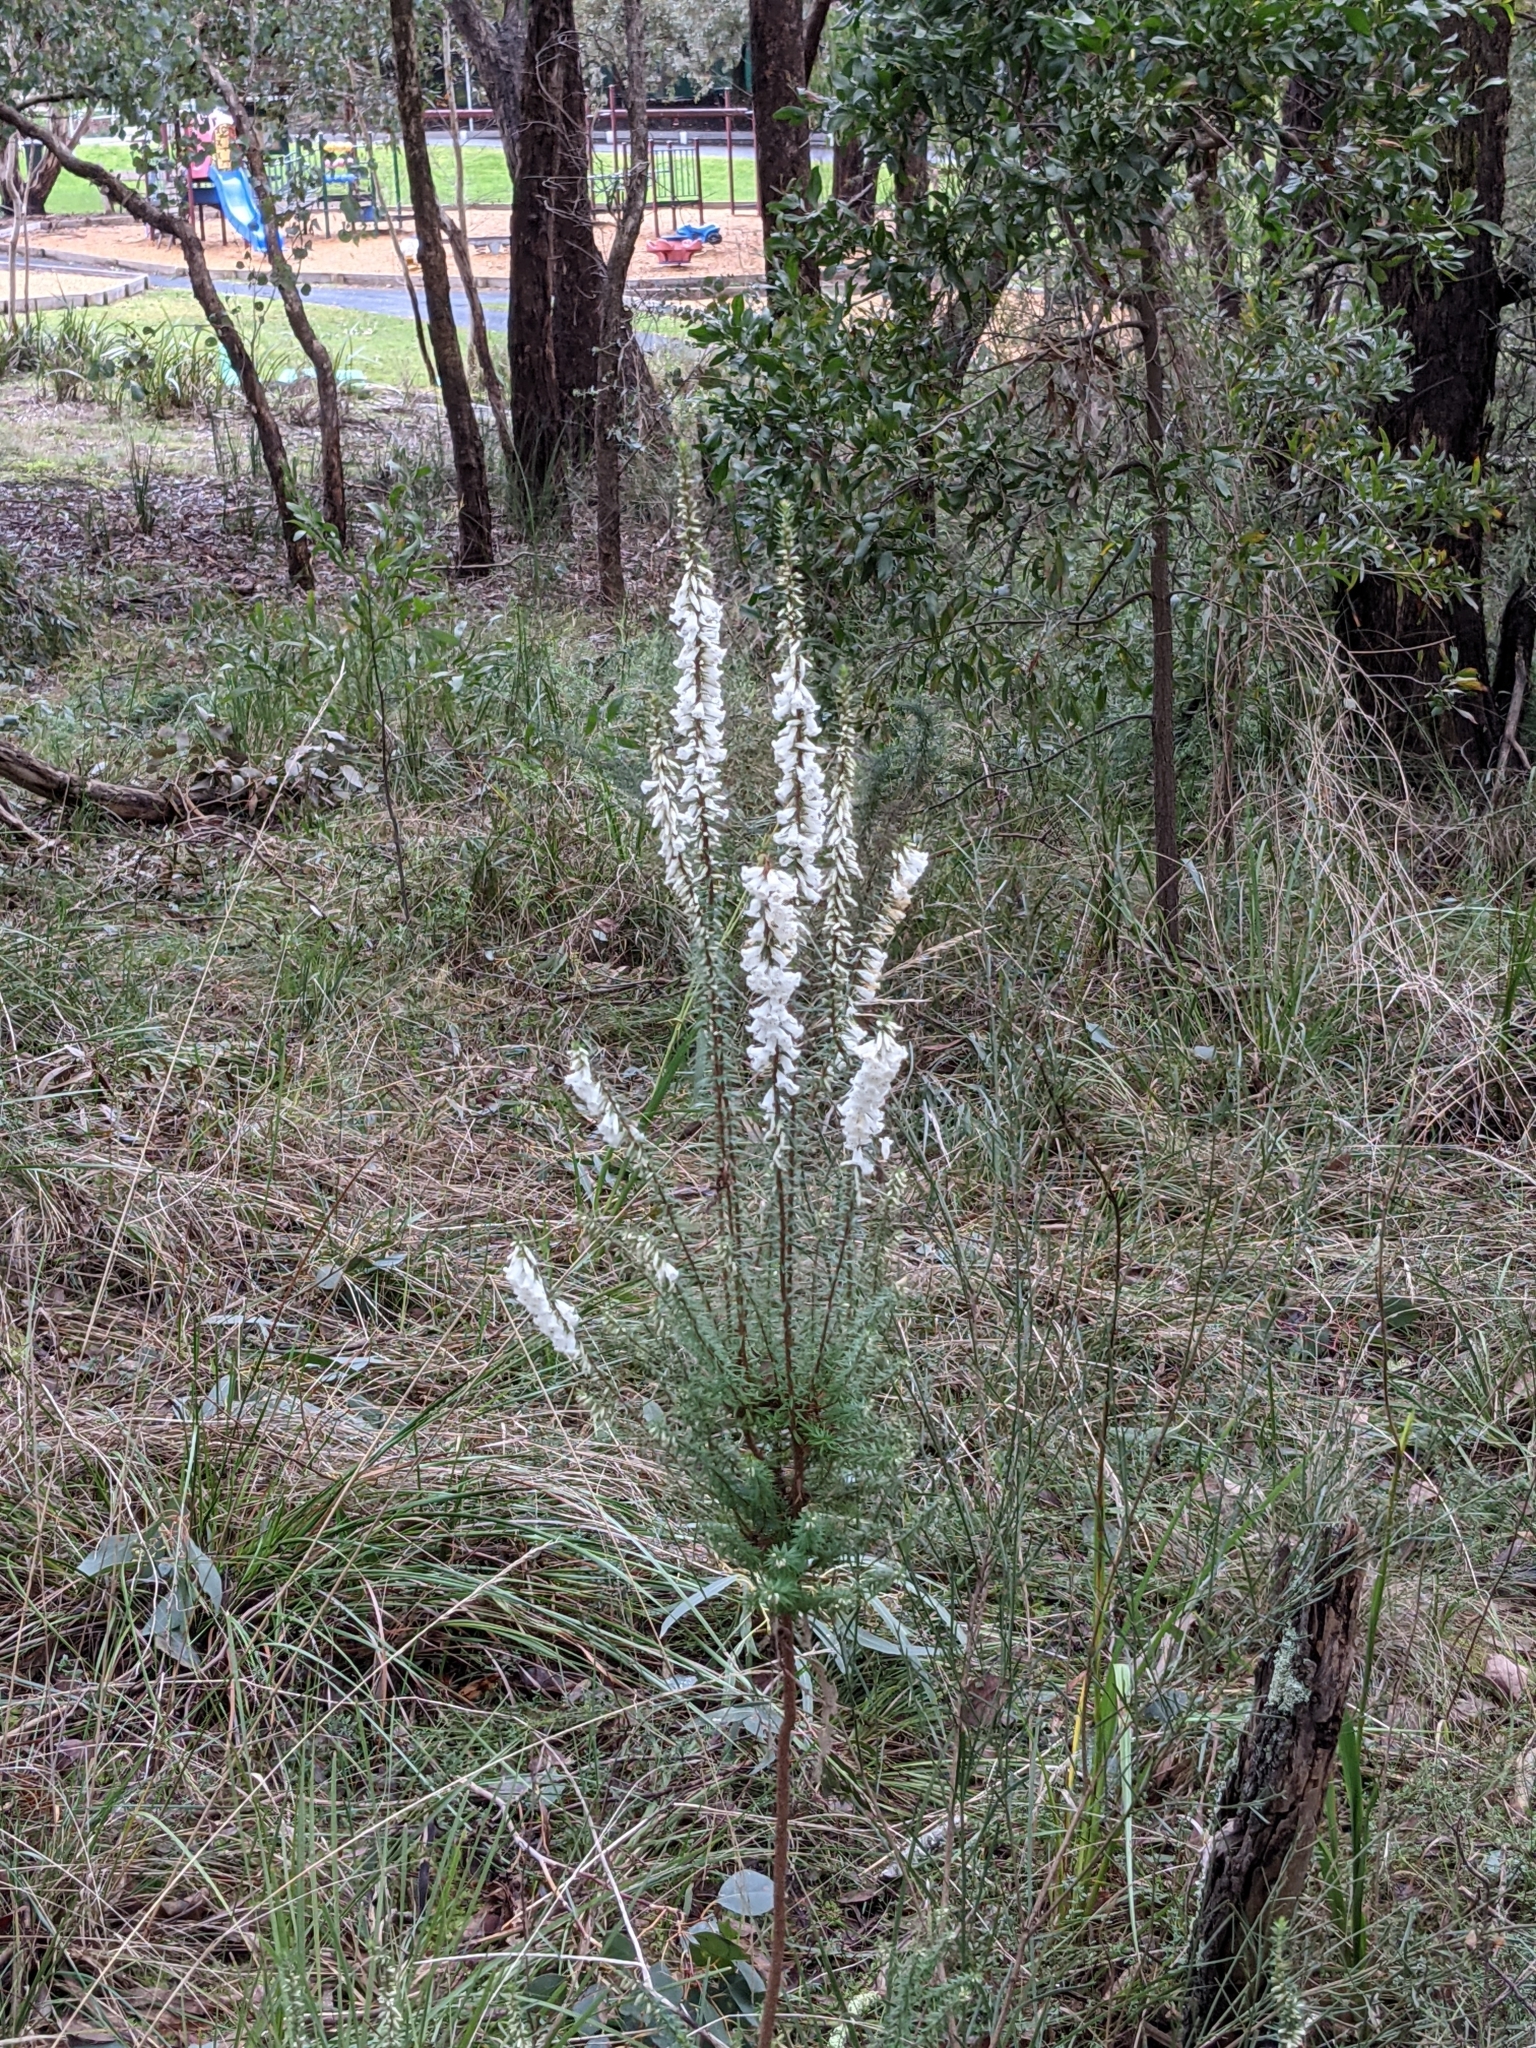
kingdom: Plantae
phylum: Tracheophyta
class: Magnoliopsida
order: Ericales
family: Ericaceae
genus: Epacris
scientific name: Epacris impressa
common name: Common-heath
